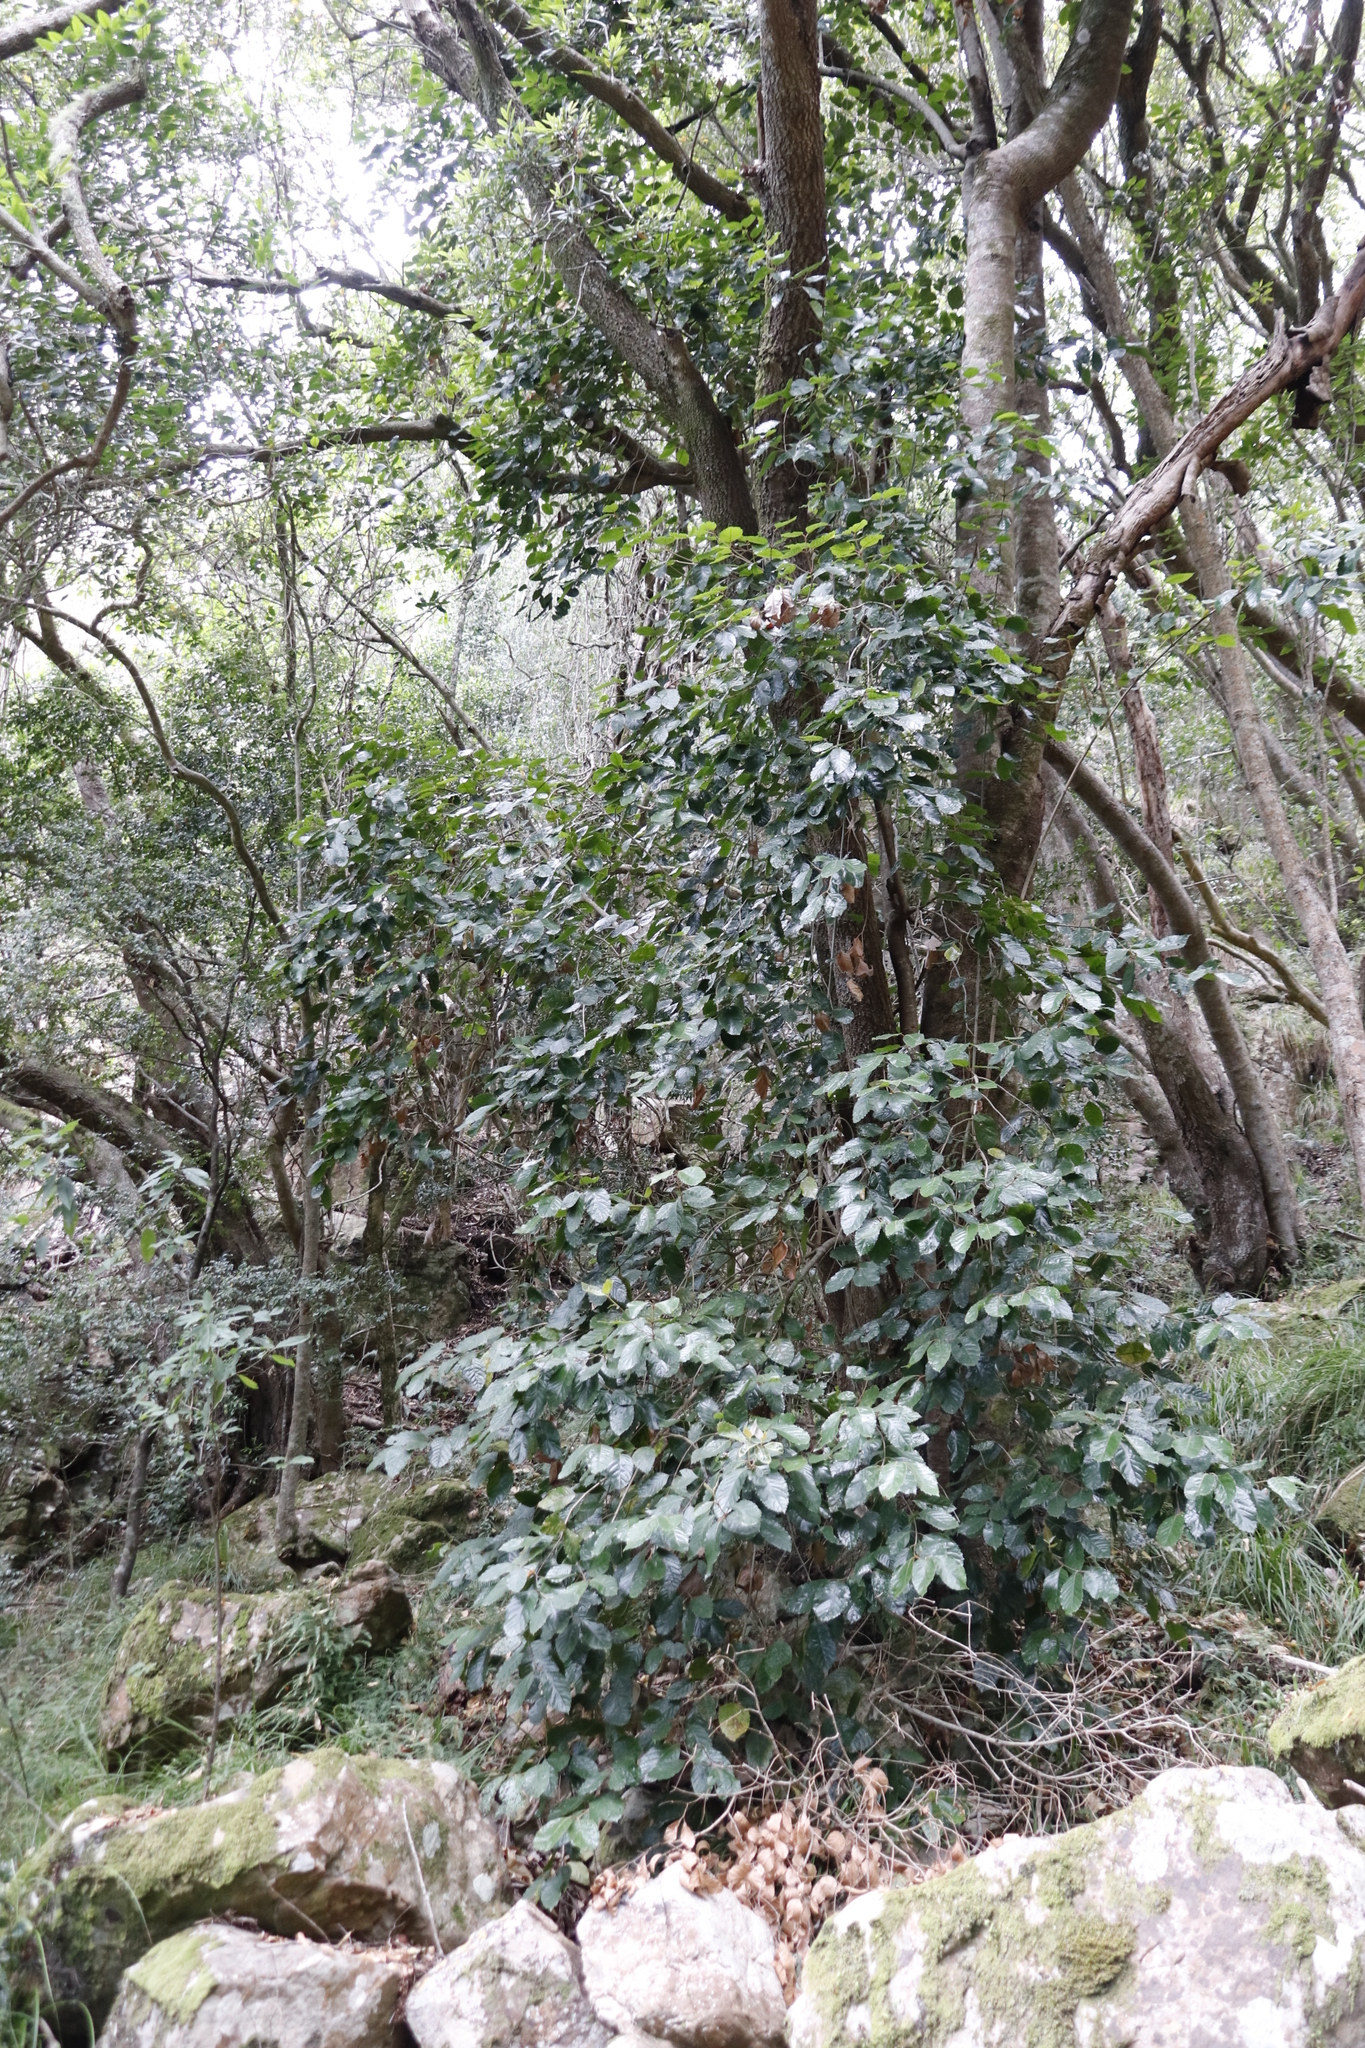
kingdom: Plantae
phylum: Tracheophyta
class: Magnoliopsida
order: Cornales
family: Curtisiaceae
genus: Curtisia
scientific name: Curtisia dentata
